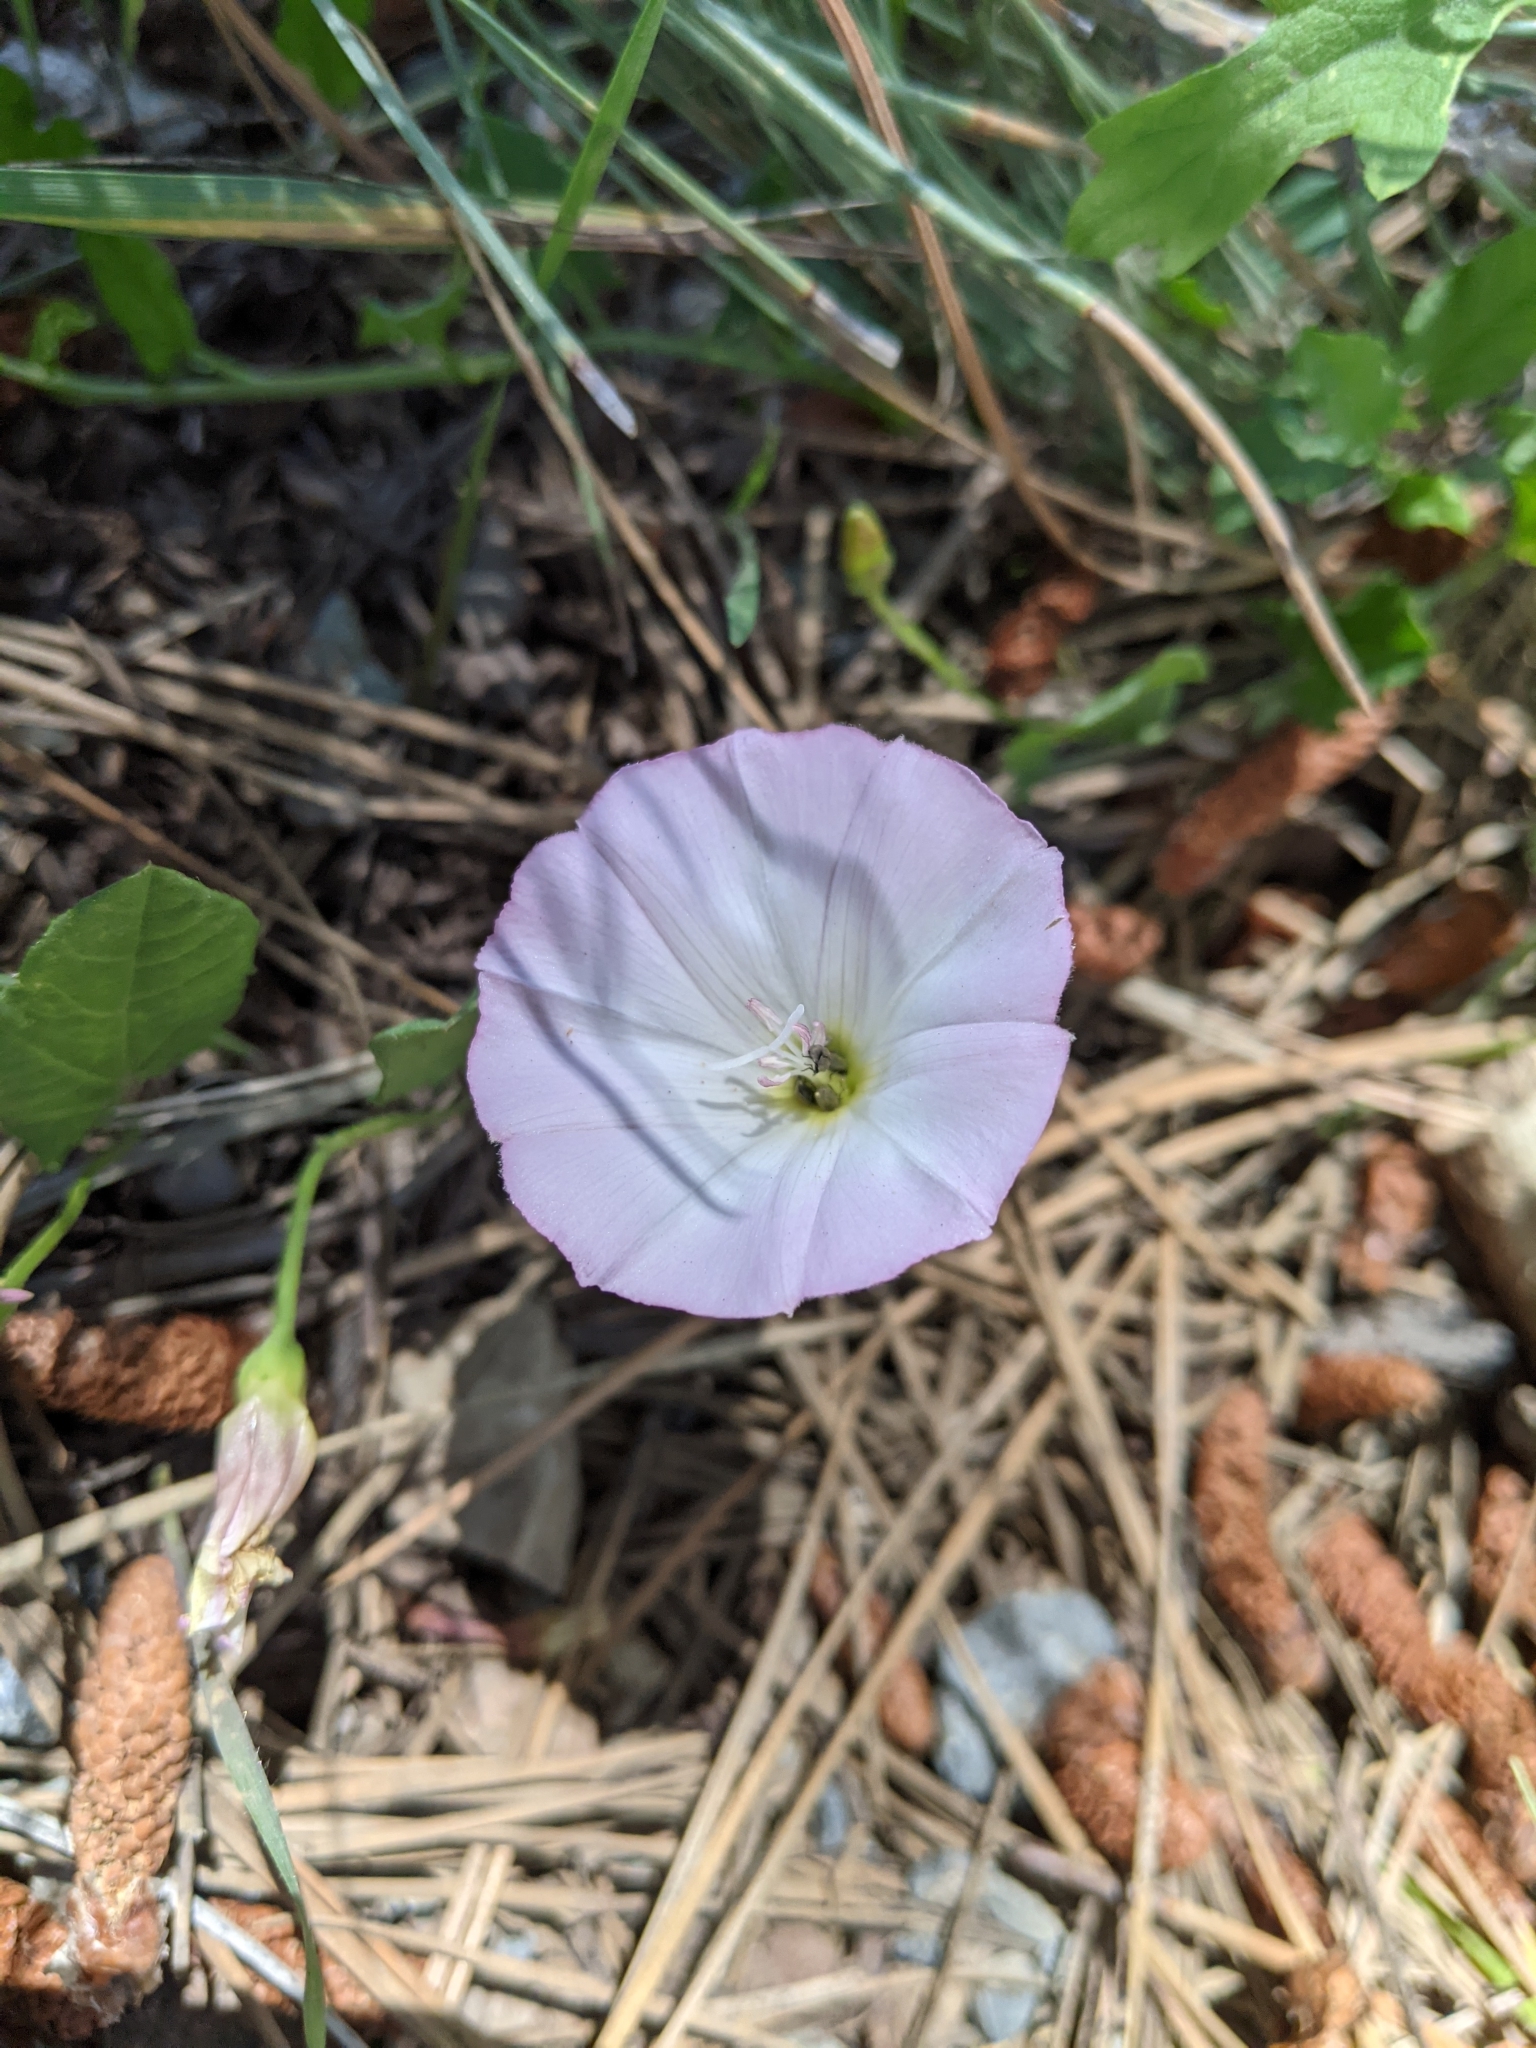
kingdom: Plantae
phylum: Tracheophyta
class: Magnoliopsida
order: Solanales
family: Convolvulaceae
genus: Convolvulus
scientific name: Convolvulus arvensis
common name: Field bindweed
